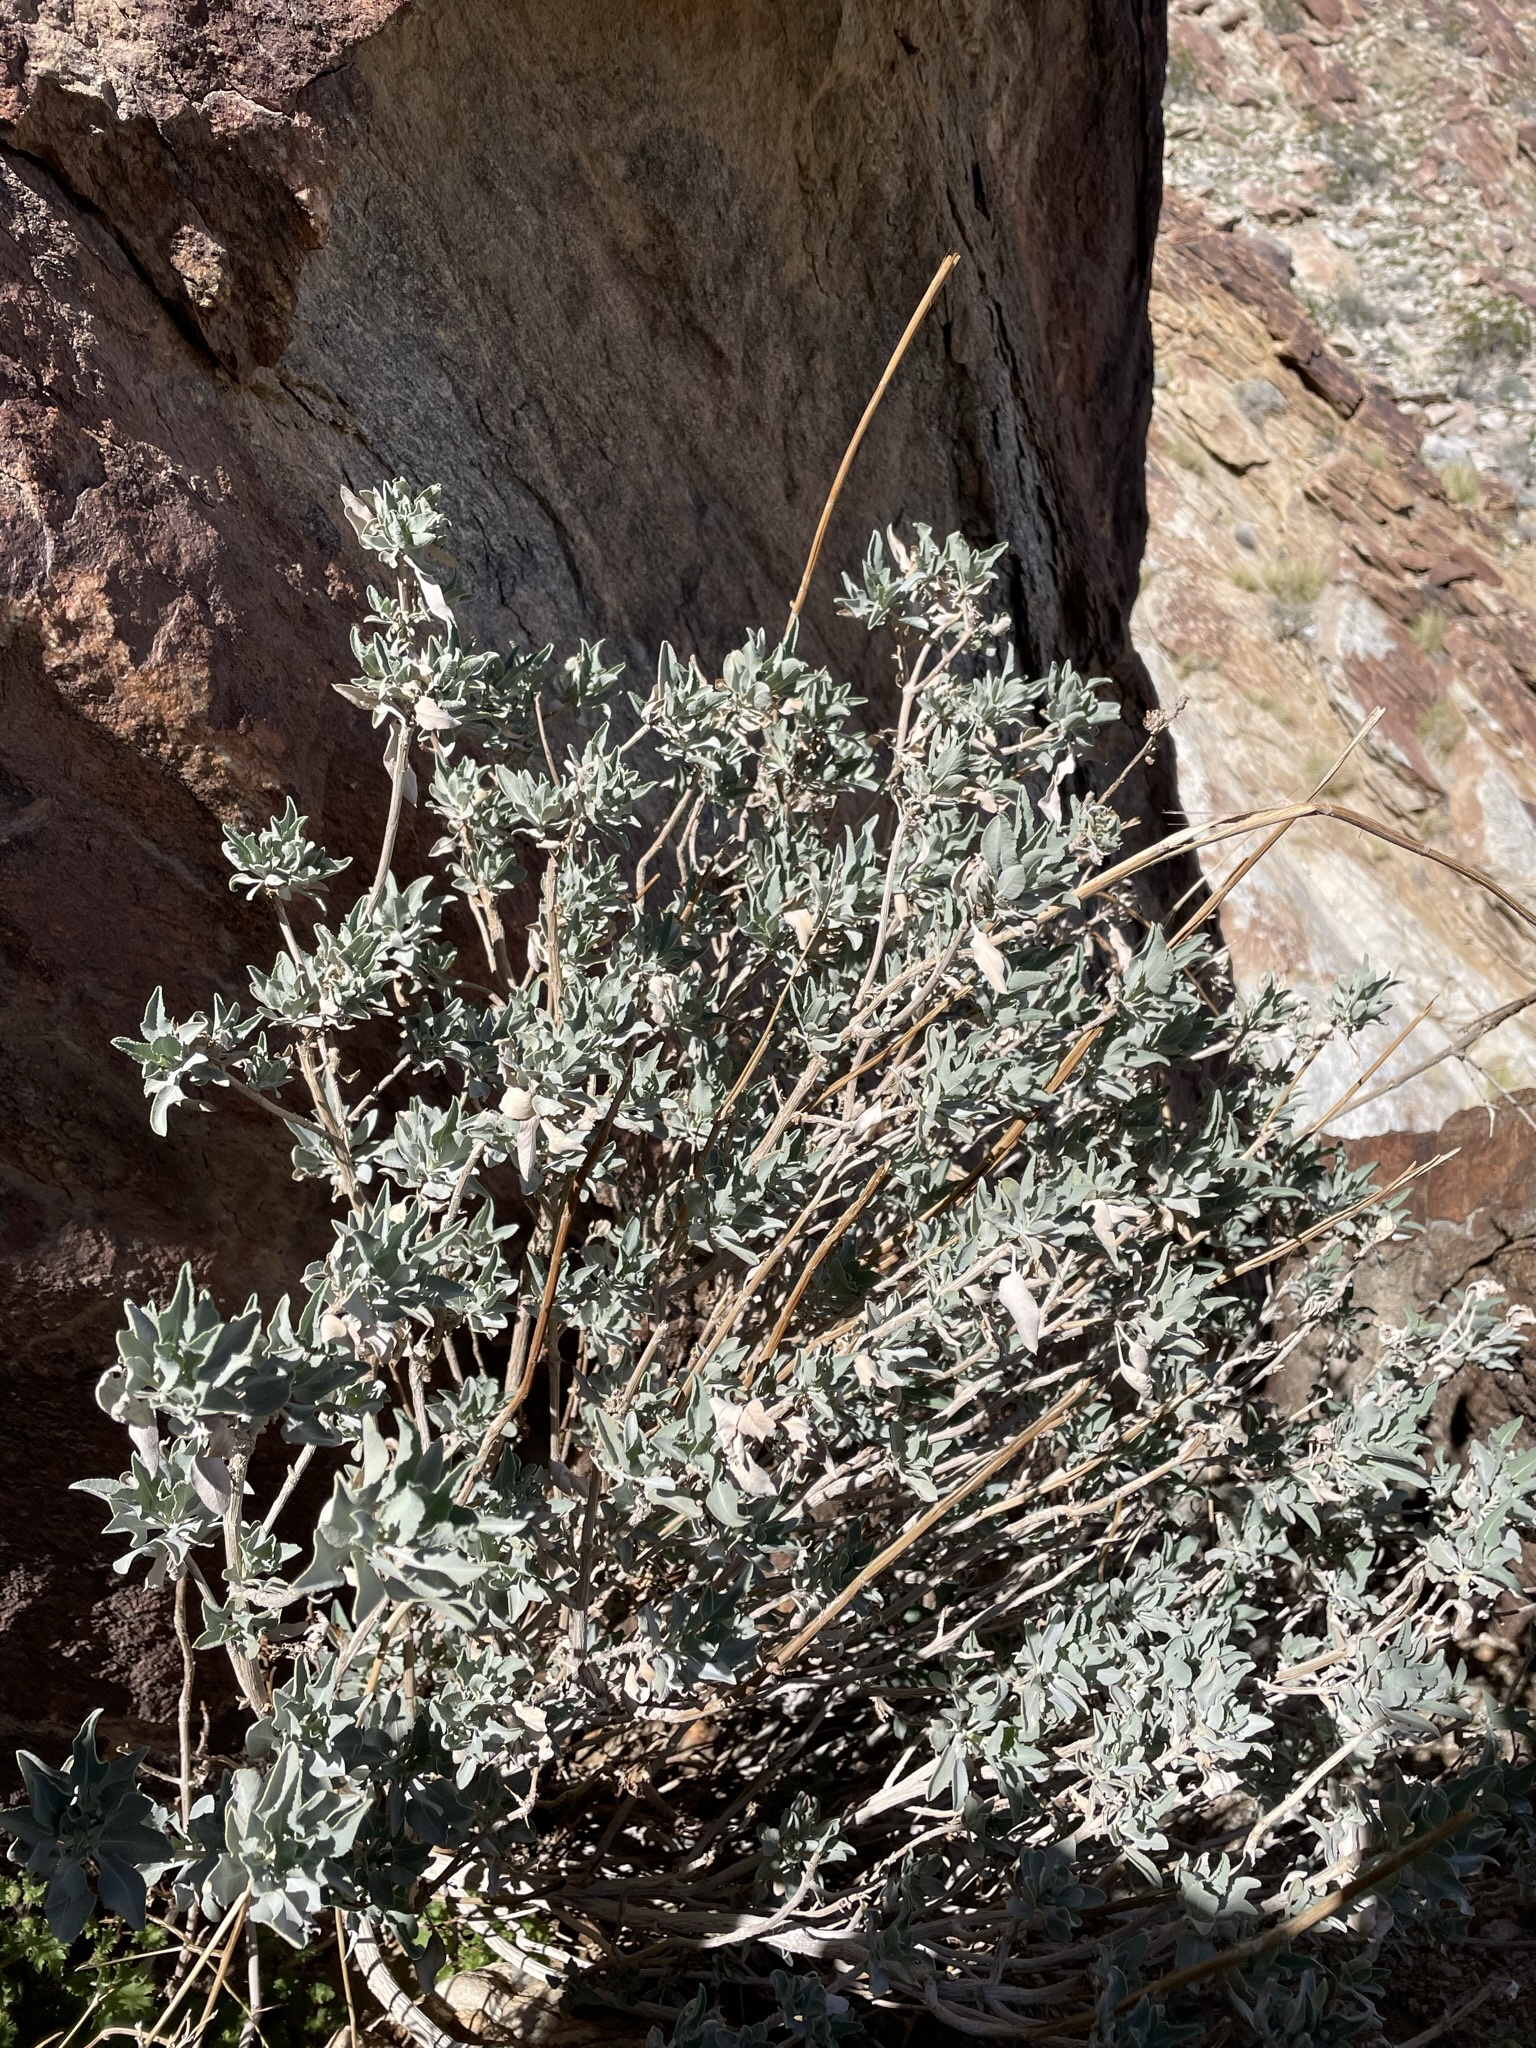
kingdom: Plantae
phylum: Tracheophyta
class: Magnoliopsida
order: Lamiales
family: Lamiaceae
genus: Salvia
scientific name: Salvia vaseyi
